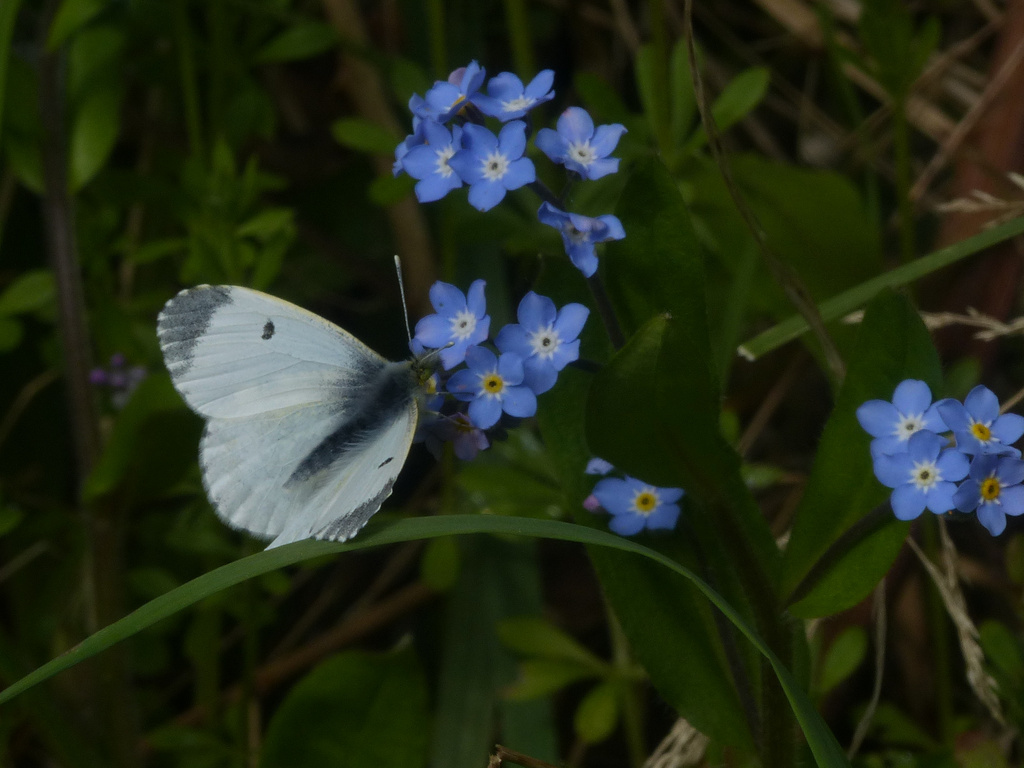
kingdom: Animalia
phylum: Arthropoda
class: Insecta
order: Lepidoptera
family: Pieridae
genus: Anthocharis
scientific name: Anthocharis cardamines
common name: Orange-tip
